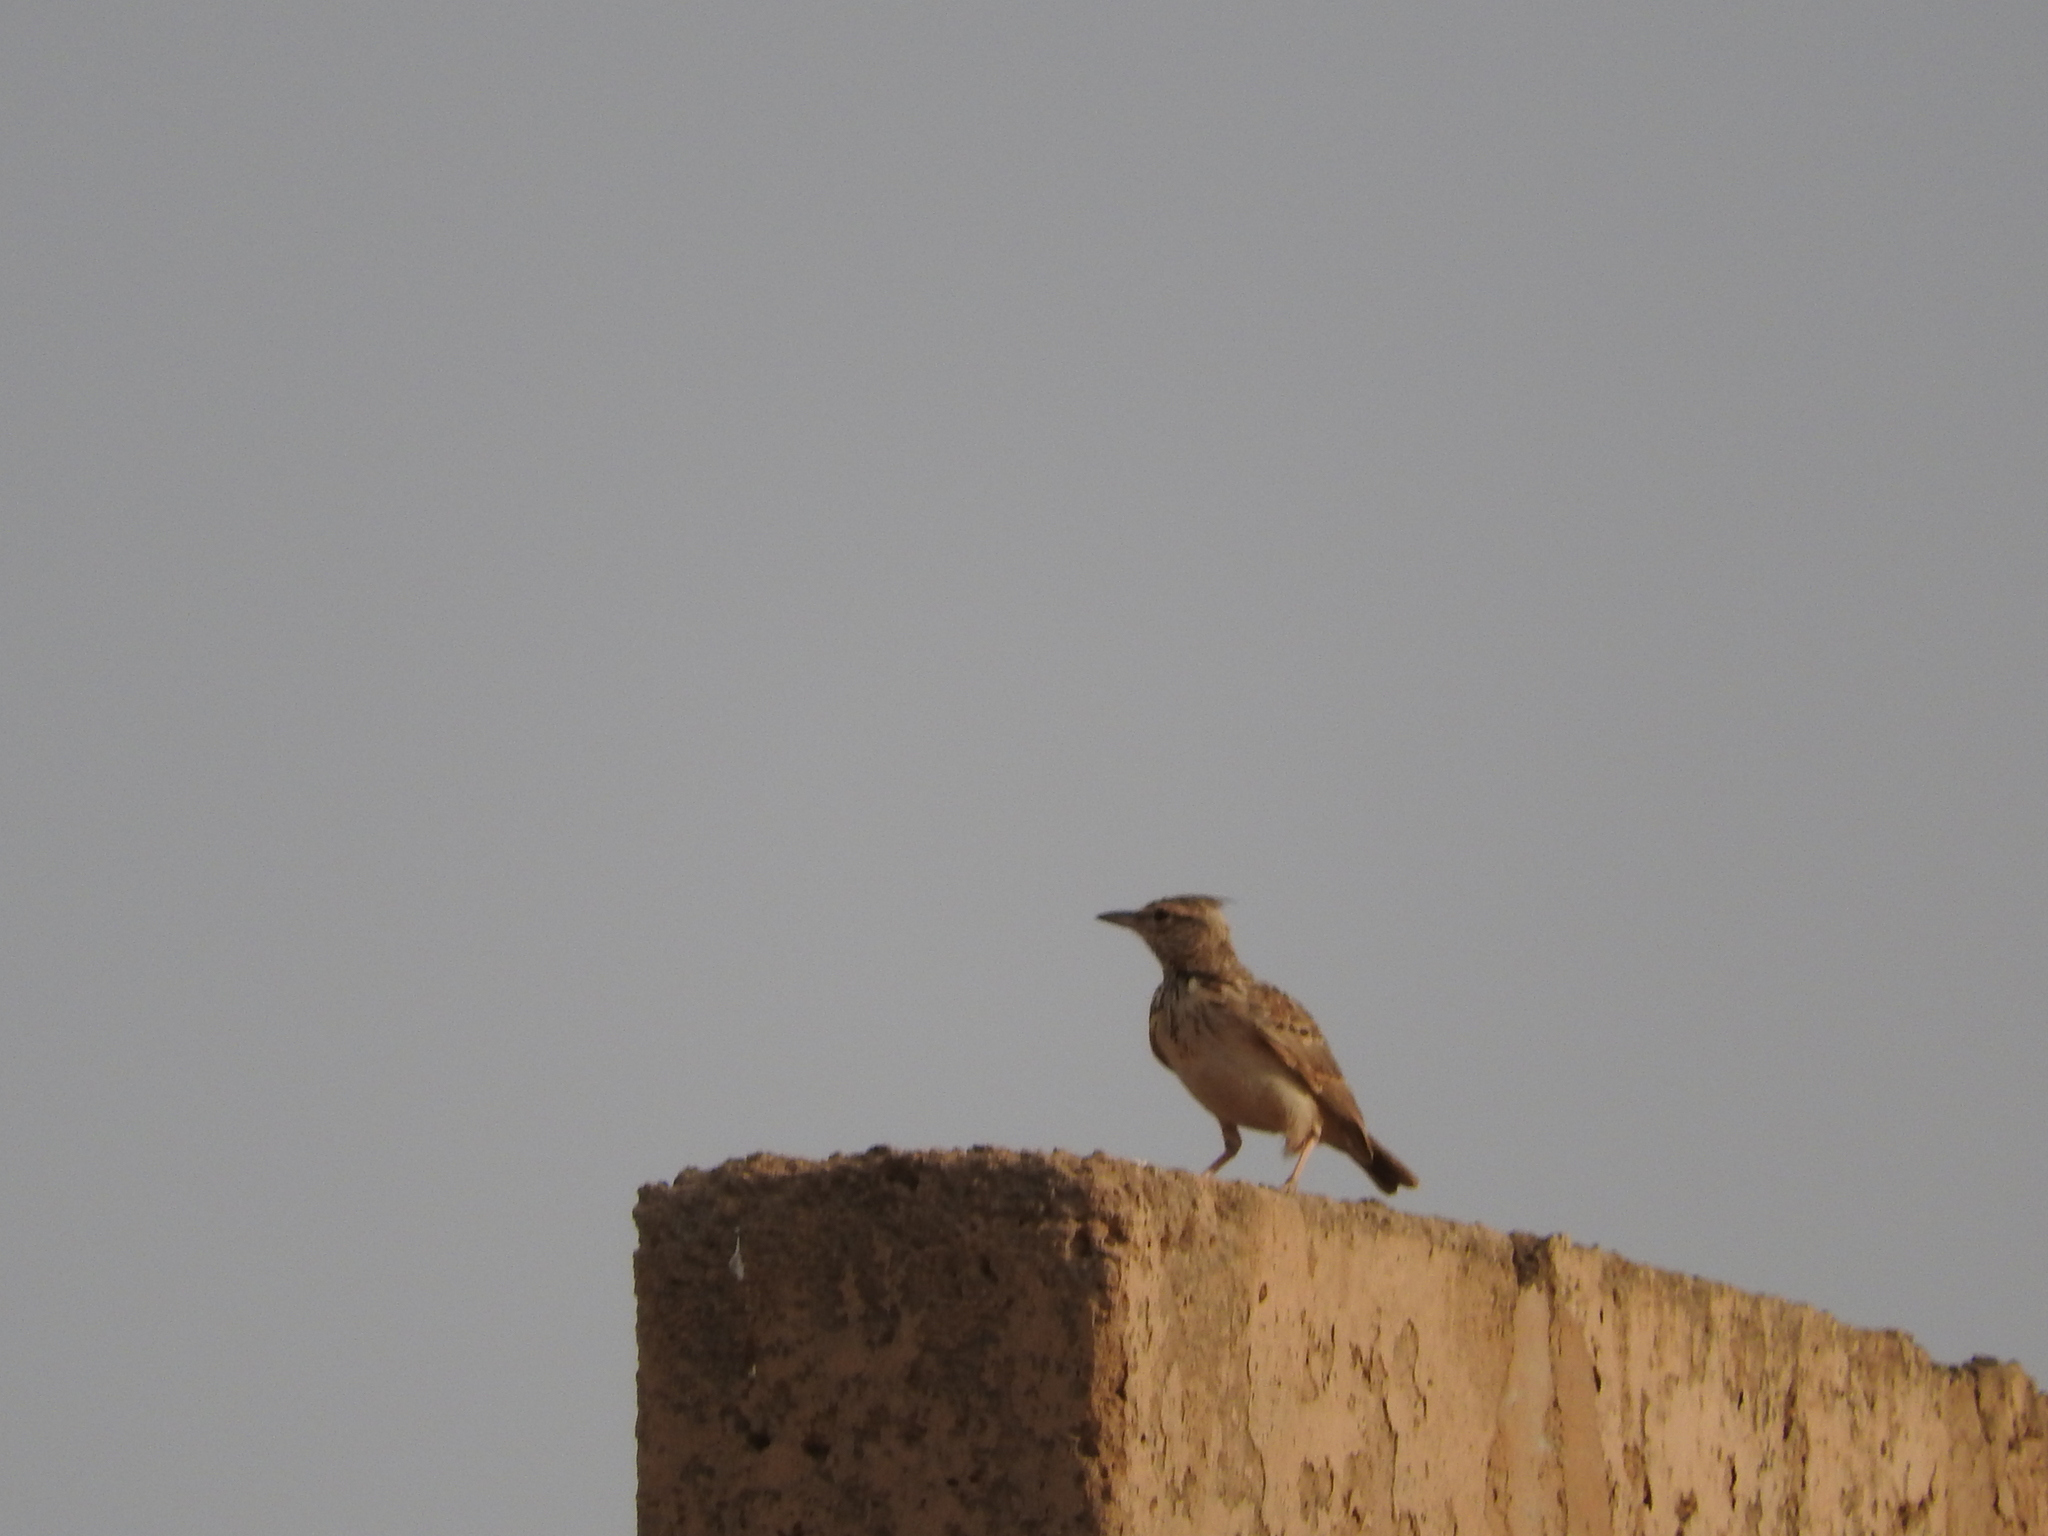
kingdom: Animalia
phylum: Chordata
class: Aves
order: Passeriformes
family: Alaudidae
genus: Galerida
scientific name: Galerida cristata
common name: Crested lark
